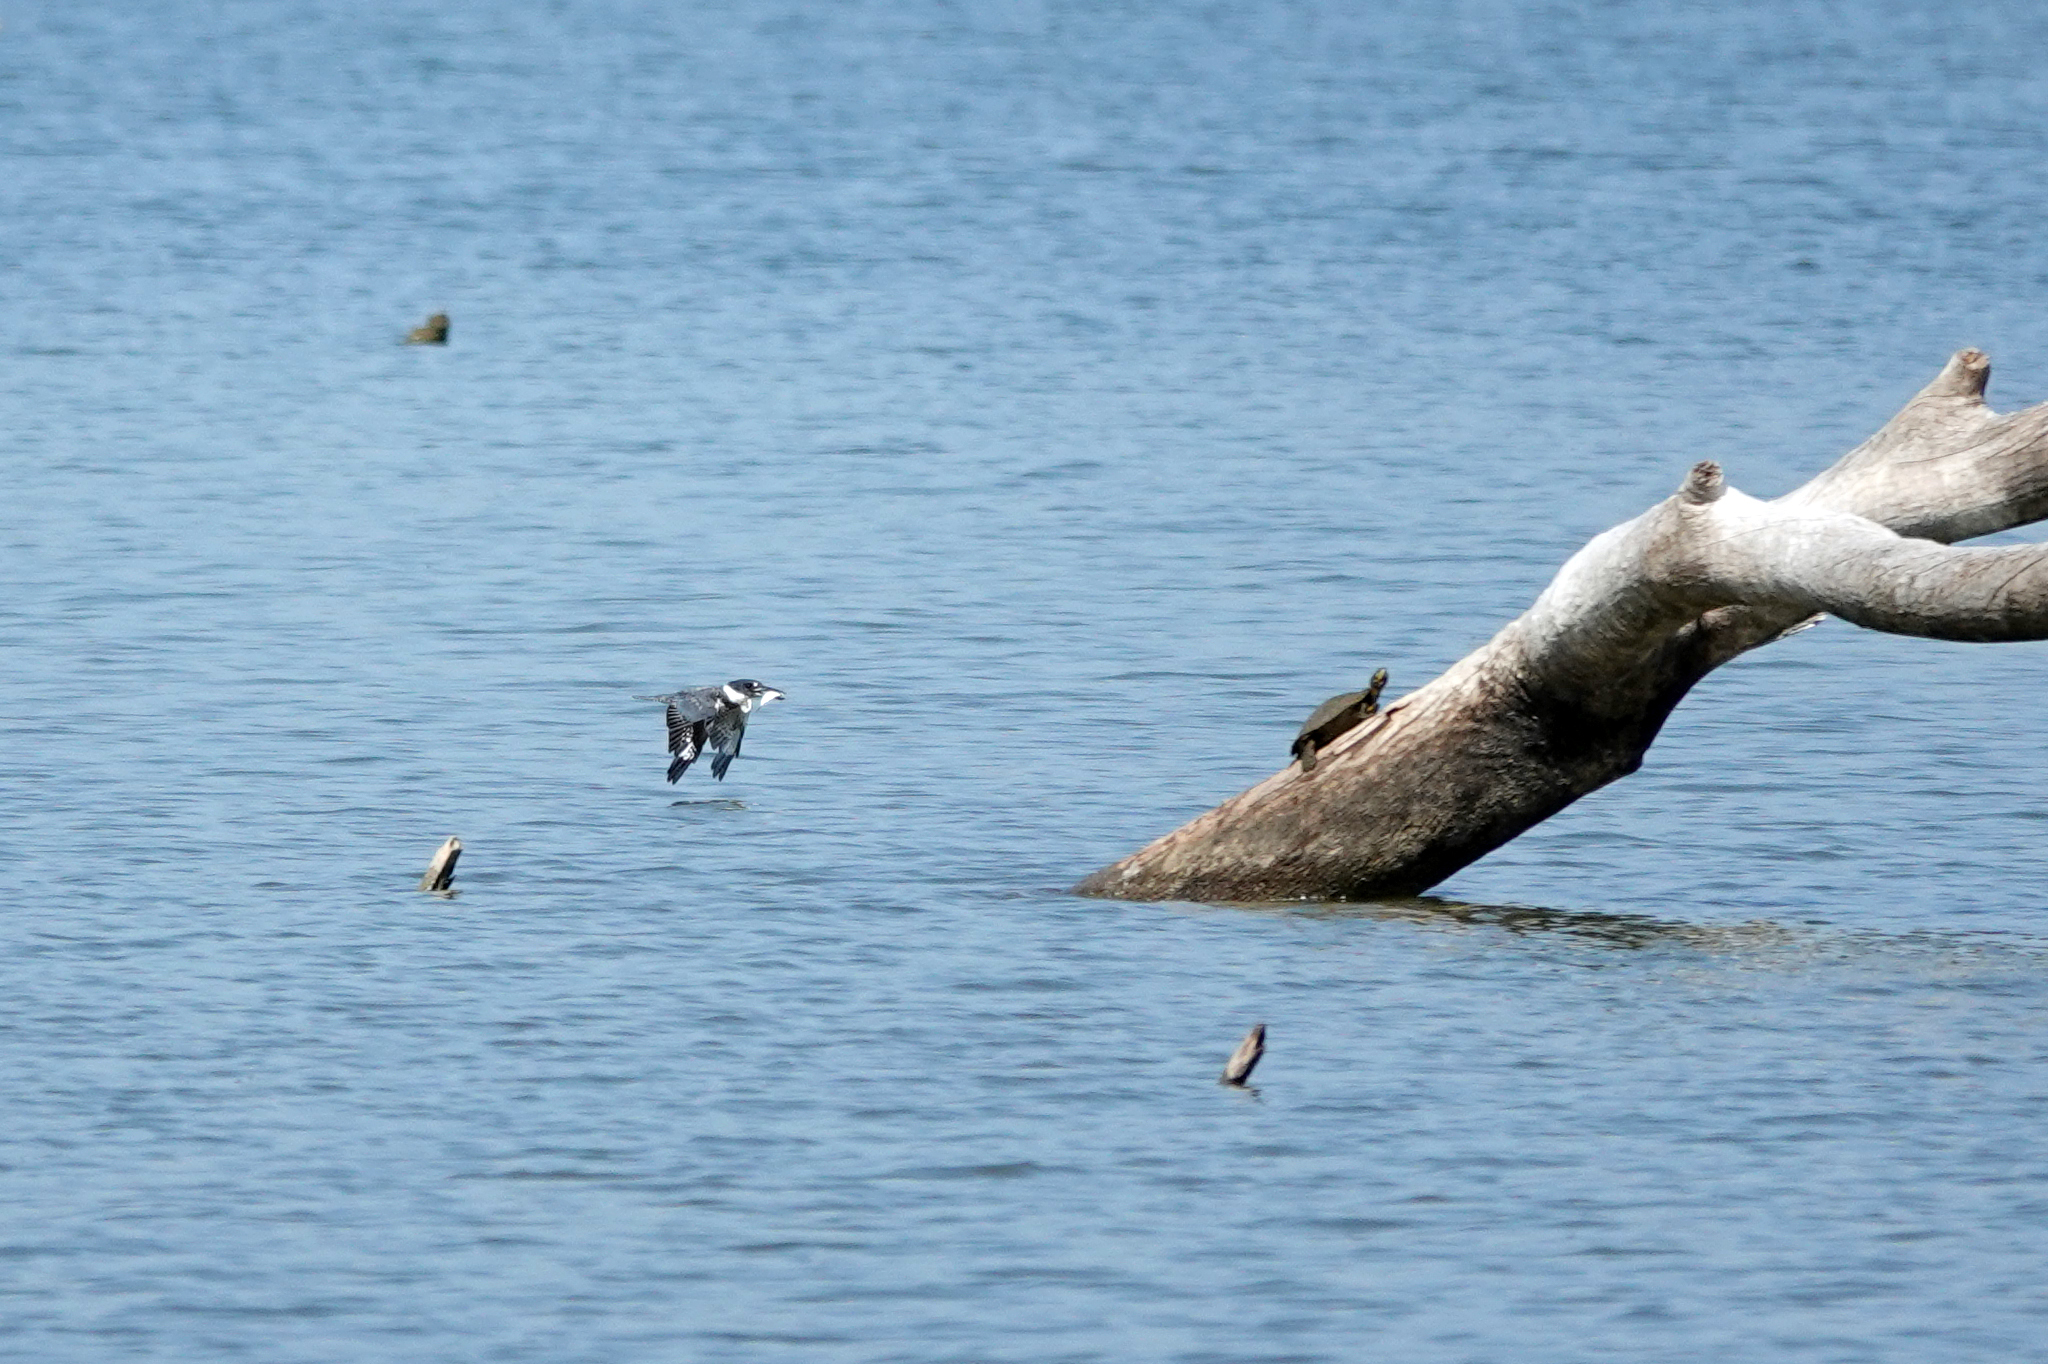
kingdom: Animalia
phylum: Chordata
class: Aves
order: Coraciiformes
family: Alcedinidae
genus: Megaceryle
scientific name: Megaceryle alcyon
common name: Belted kingfisher
